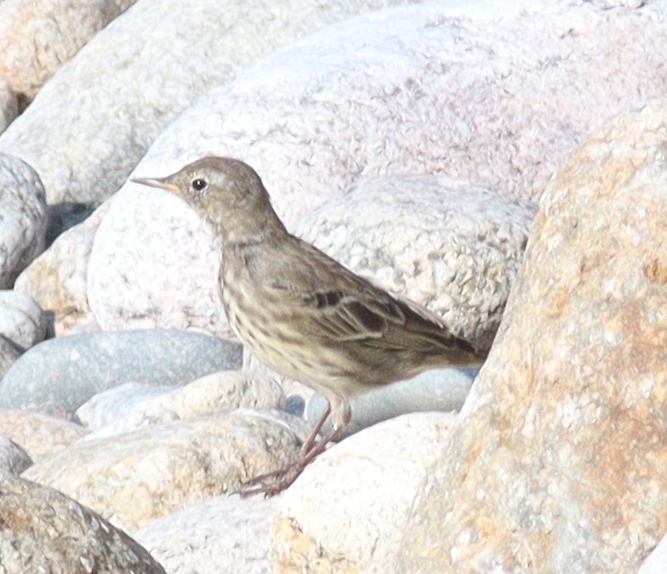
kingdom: Animalia
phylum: Chordata
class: Aves
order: Passeriformes
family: Motacillidae
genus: Anthus
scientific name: Anthus petrosus
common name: Eurasian rock pipit
